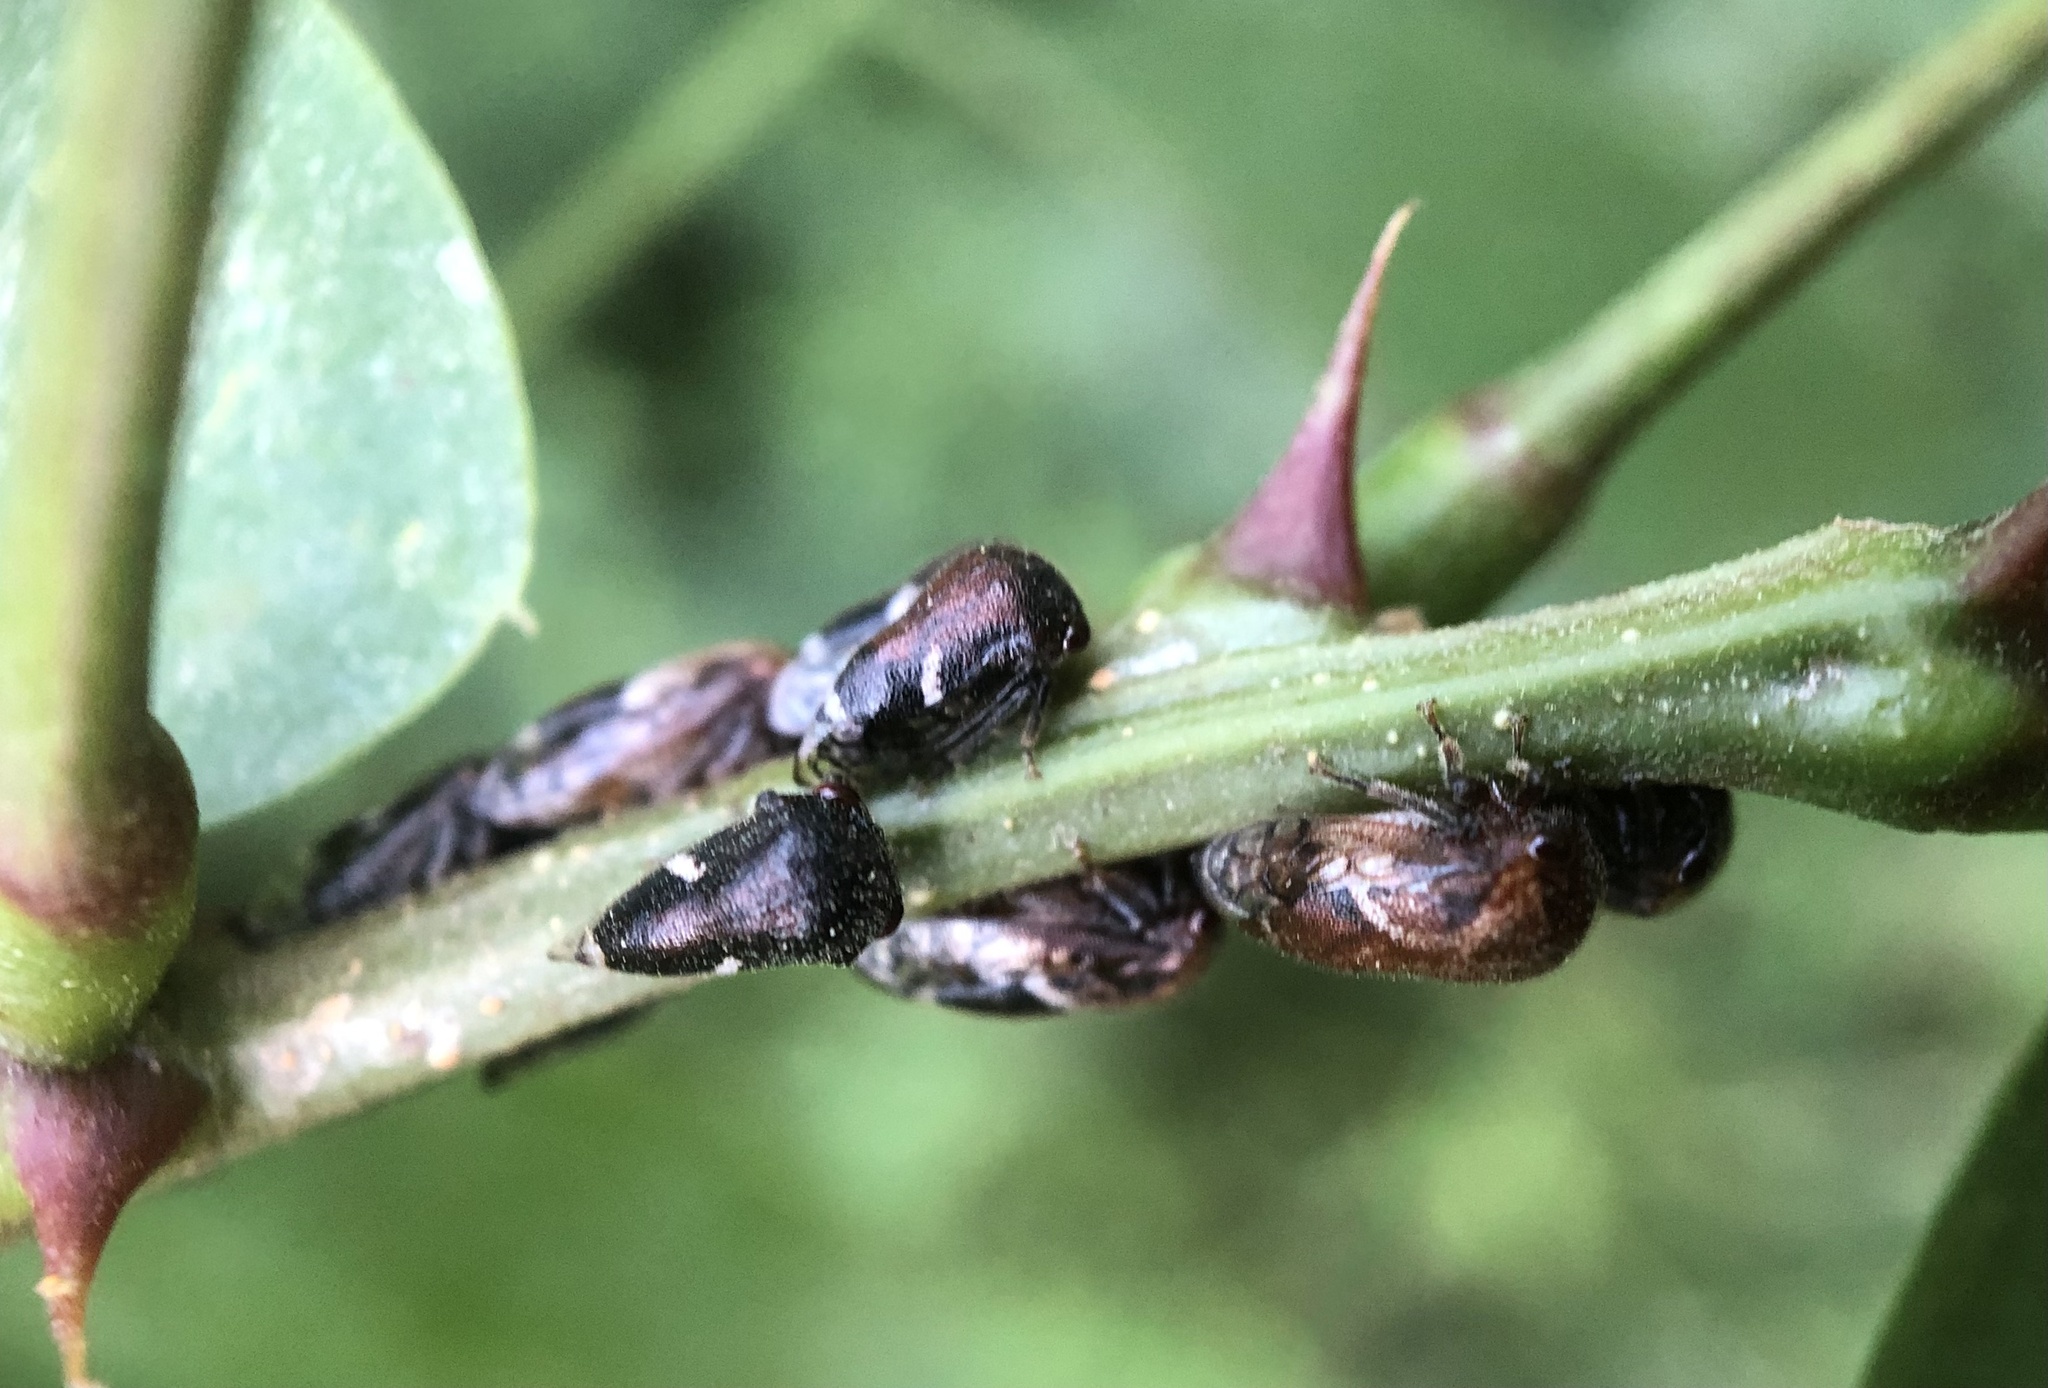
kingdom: Animalia
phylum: Arthropoda
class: Insecta
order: Hemiptera
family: Membracidae
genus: Vanduzea
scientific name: Vanduzea arquata
